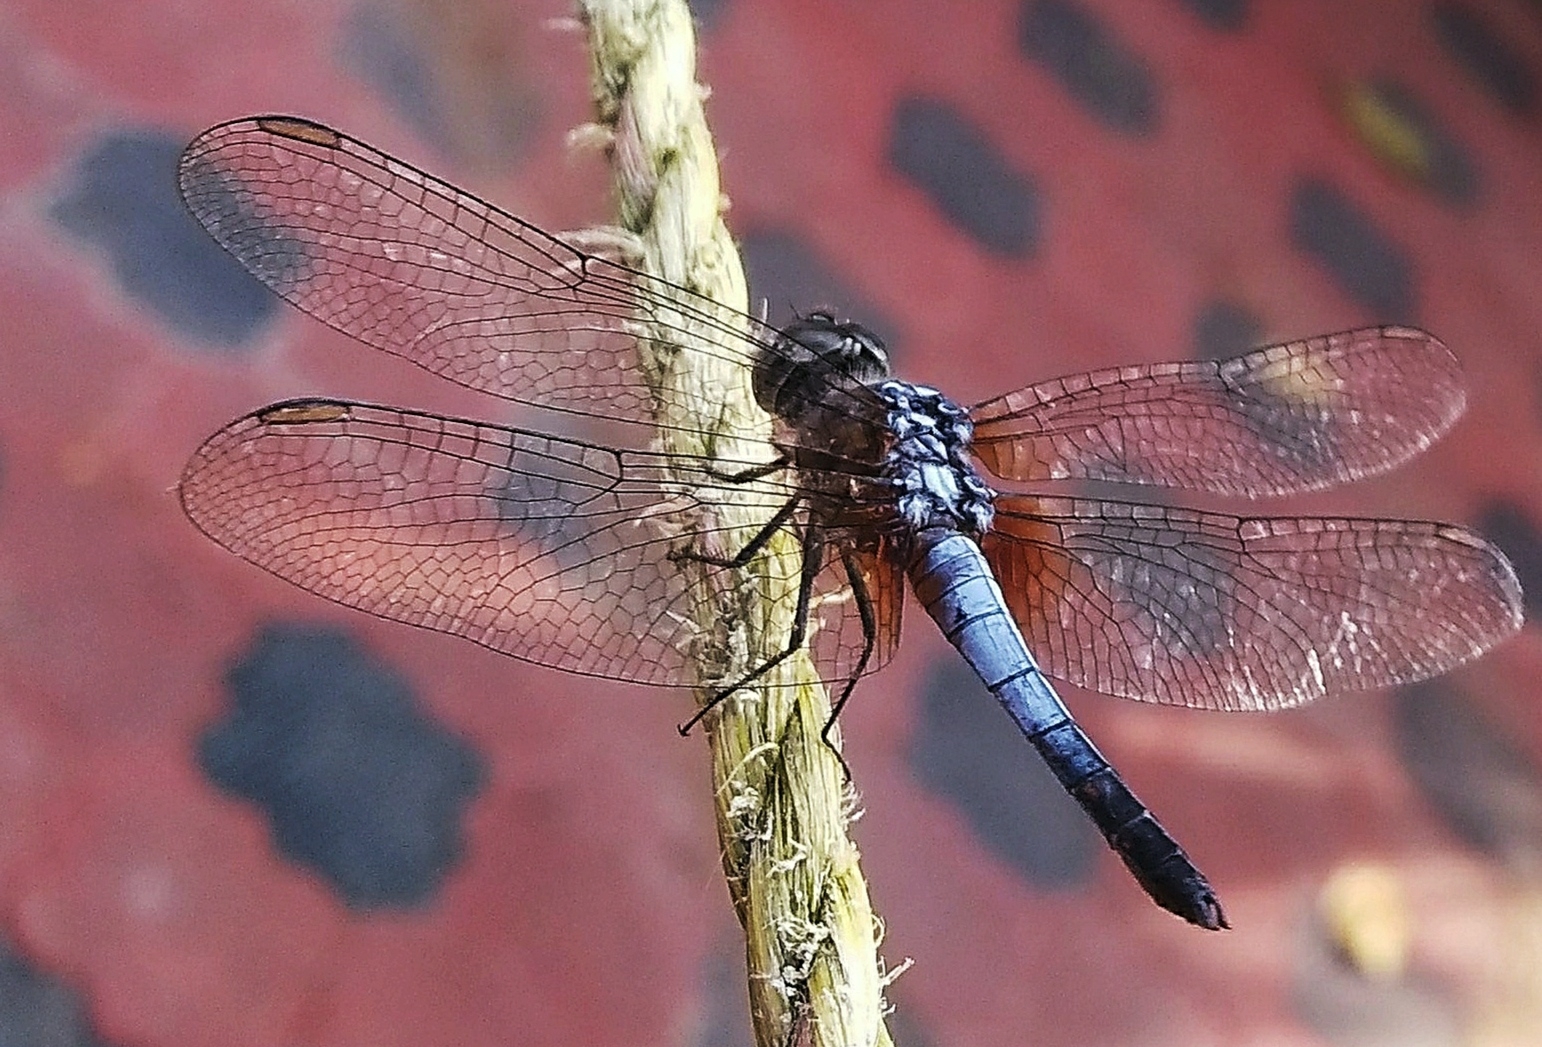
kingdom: Animalia
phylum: Arthropoda
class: Insecta
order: Odonata
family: Libellulidae
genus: Brachydiplax
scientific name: Brachydiplax chalybea
